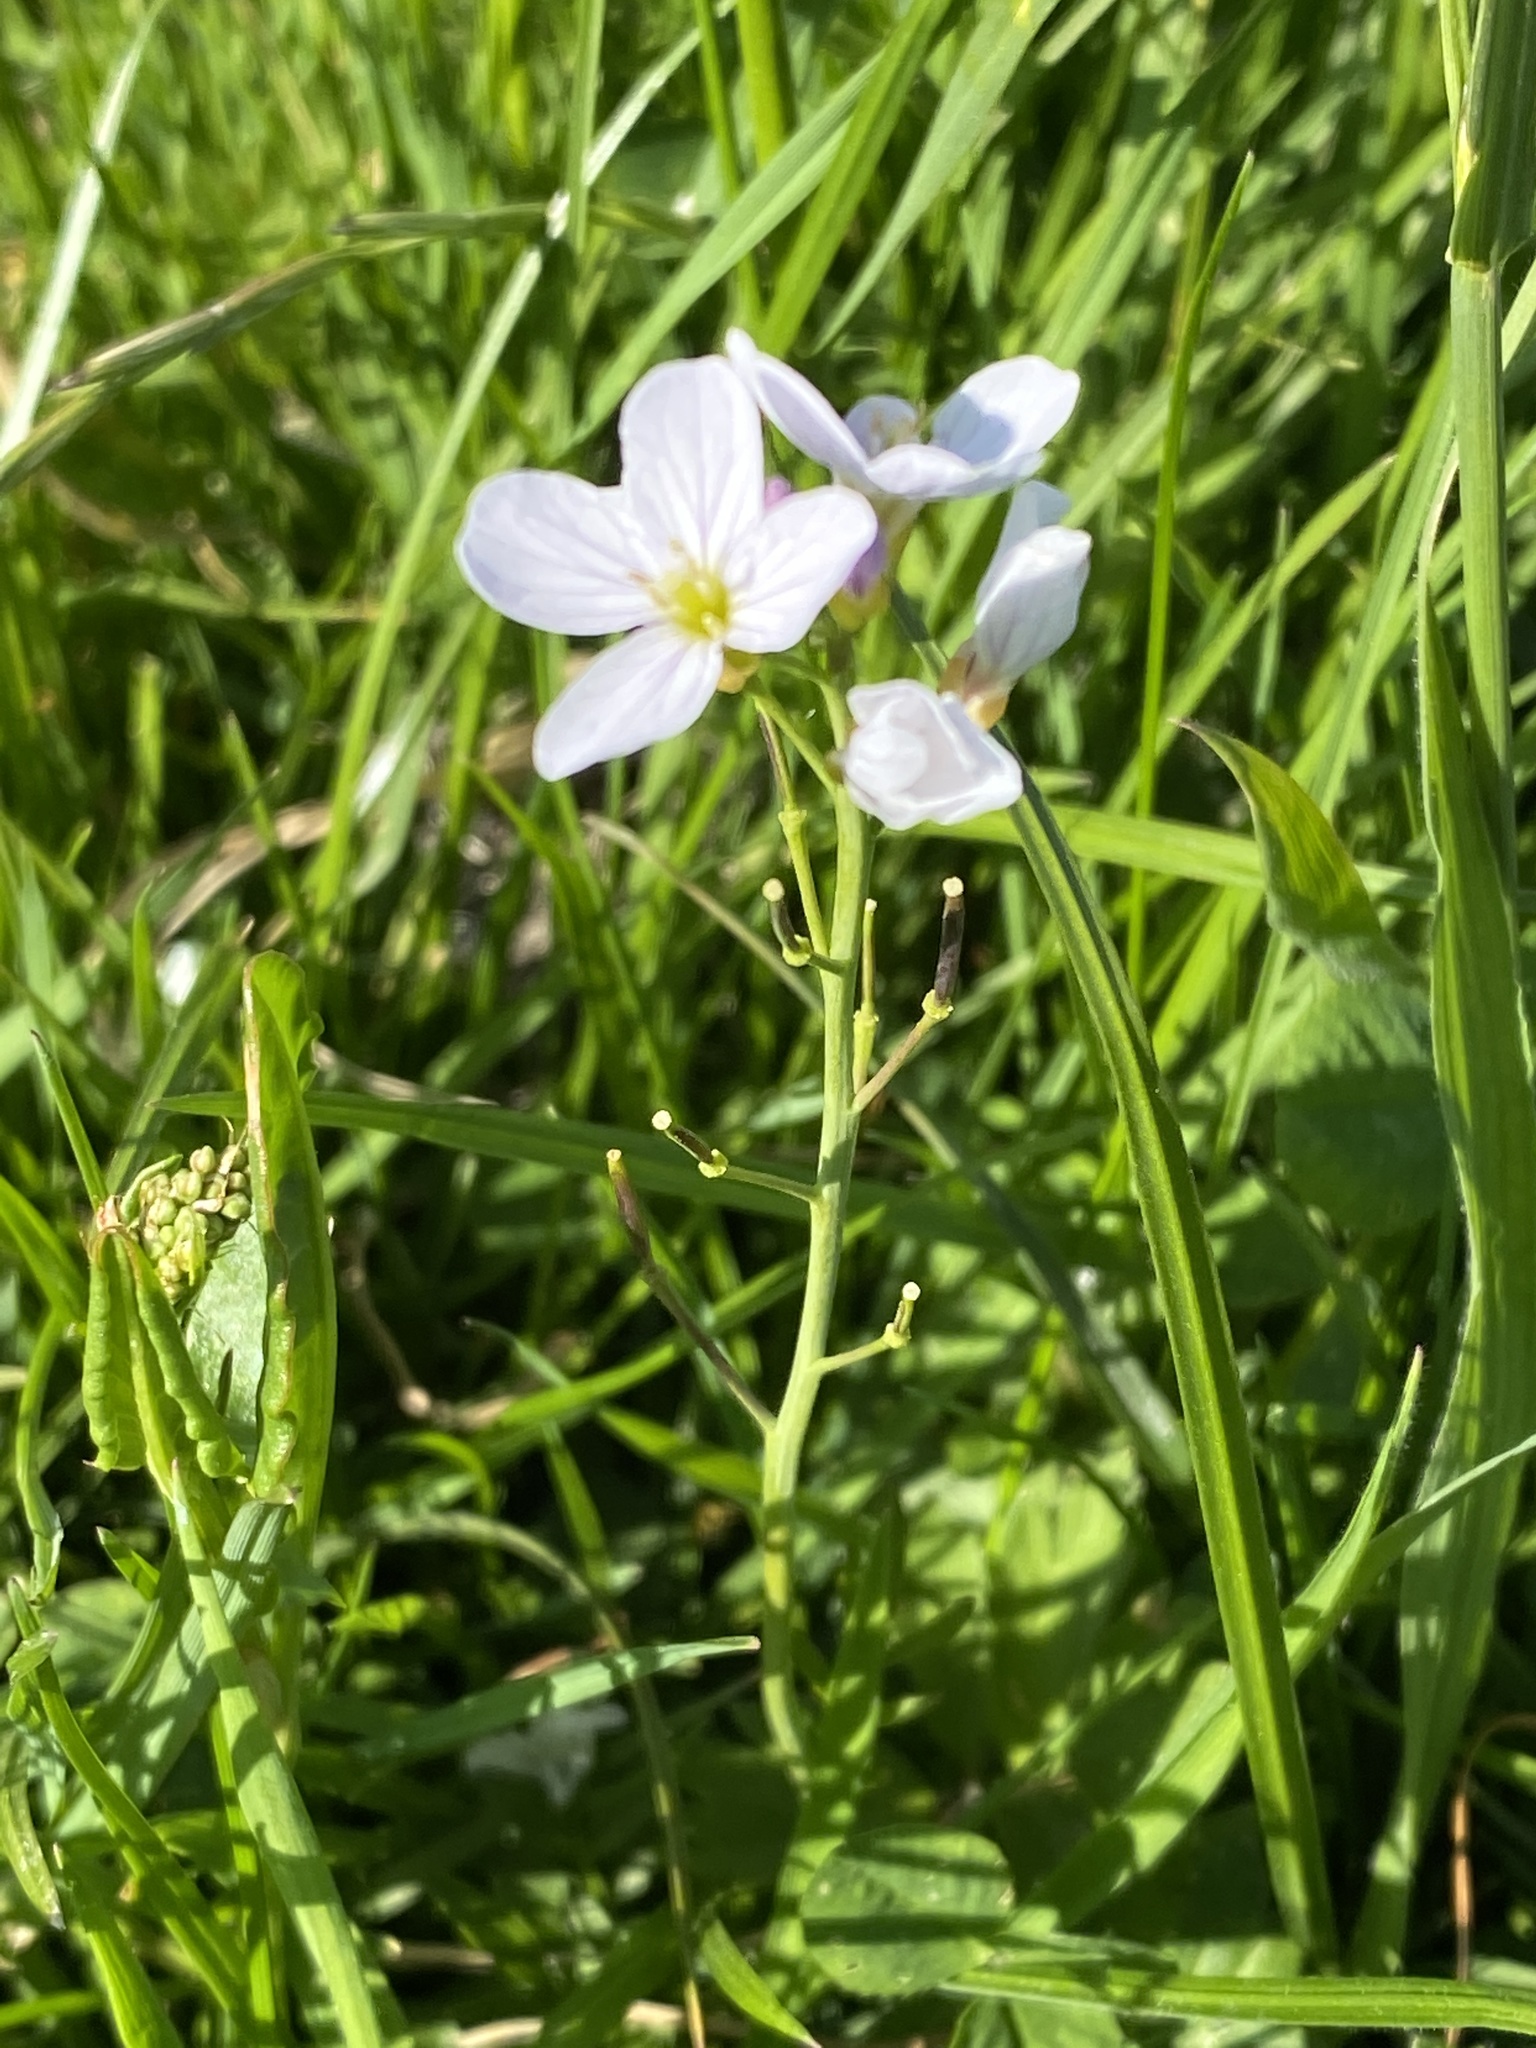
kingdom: Plantae
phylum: Tracheophyta
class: Magnoliopsida
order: Brassicales
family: Brassicaceae
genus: Cardamine
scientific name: Cardamine pratensis
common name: Cuckoo flower
